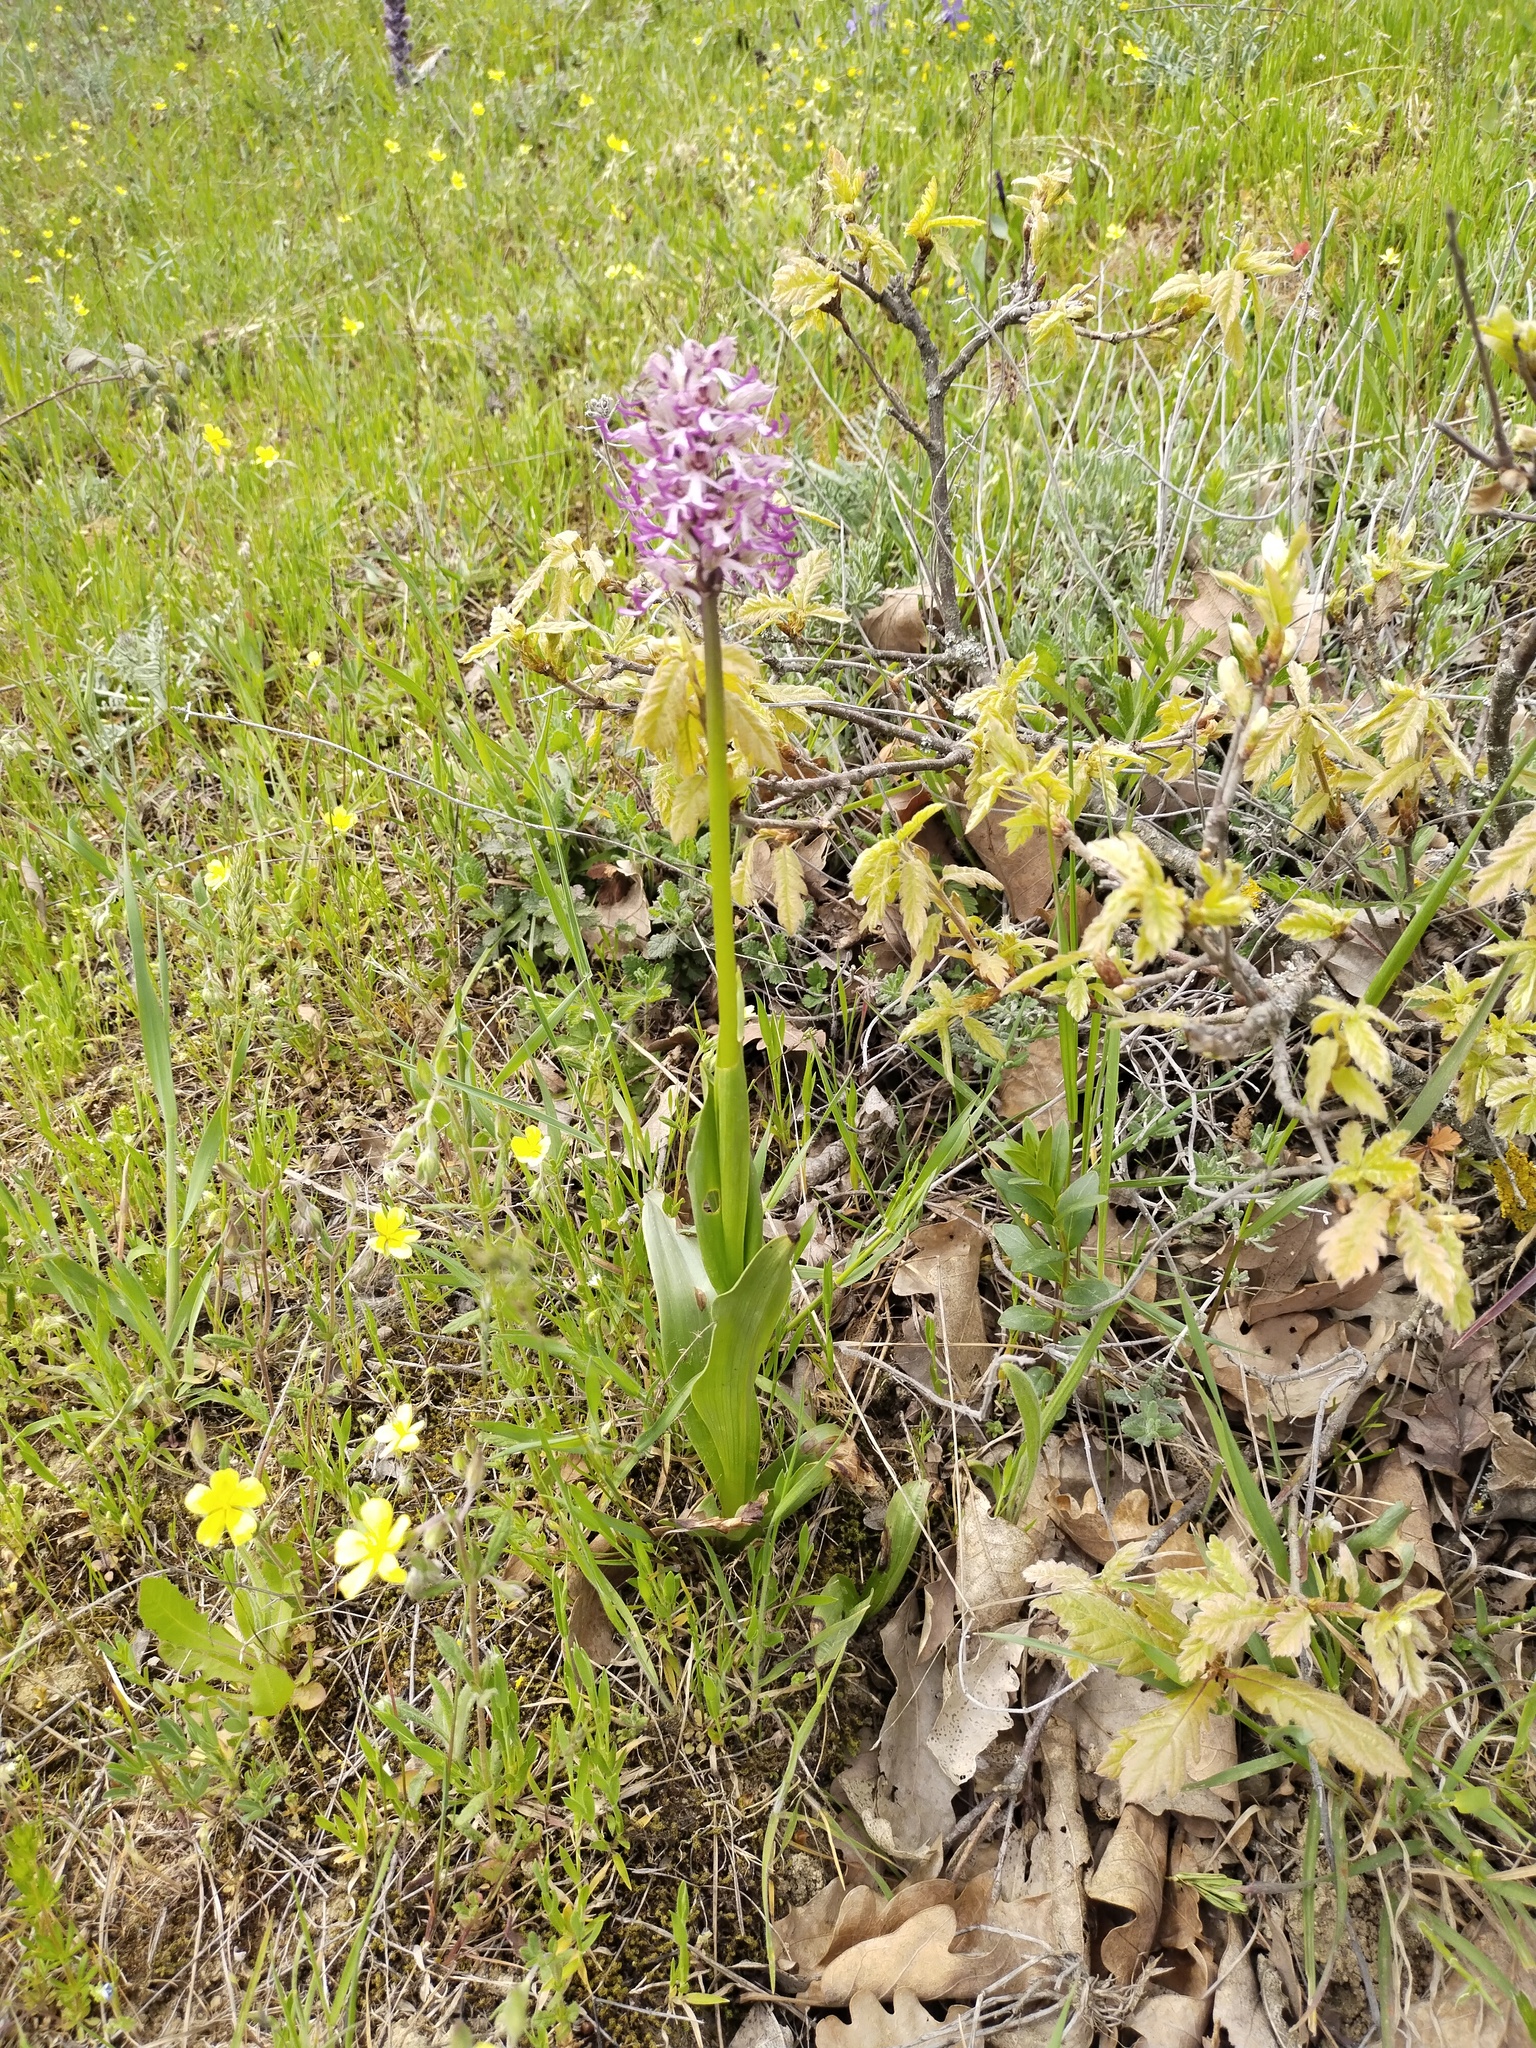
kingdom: Plantae
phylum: Tracheophyta
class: Liliopsida
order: Asparagales
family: Orchidaceae
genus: Orchis
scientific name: Orchis simia
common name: Monkey orchid
